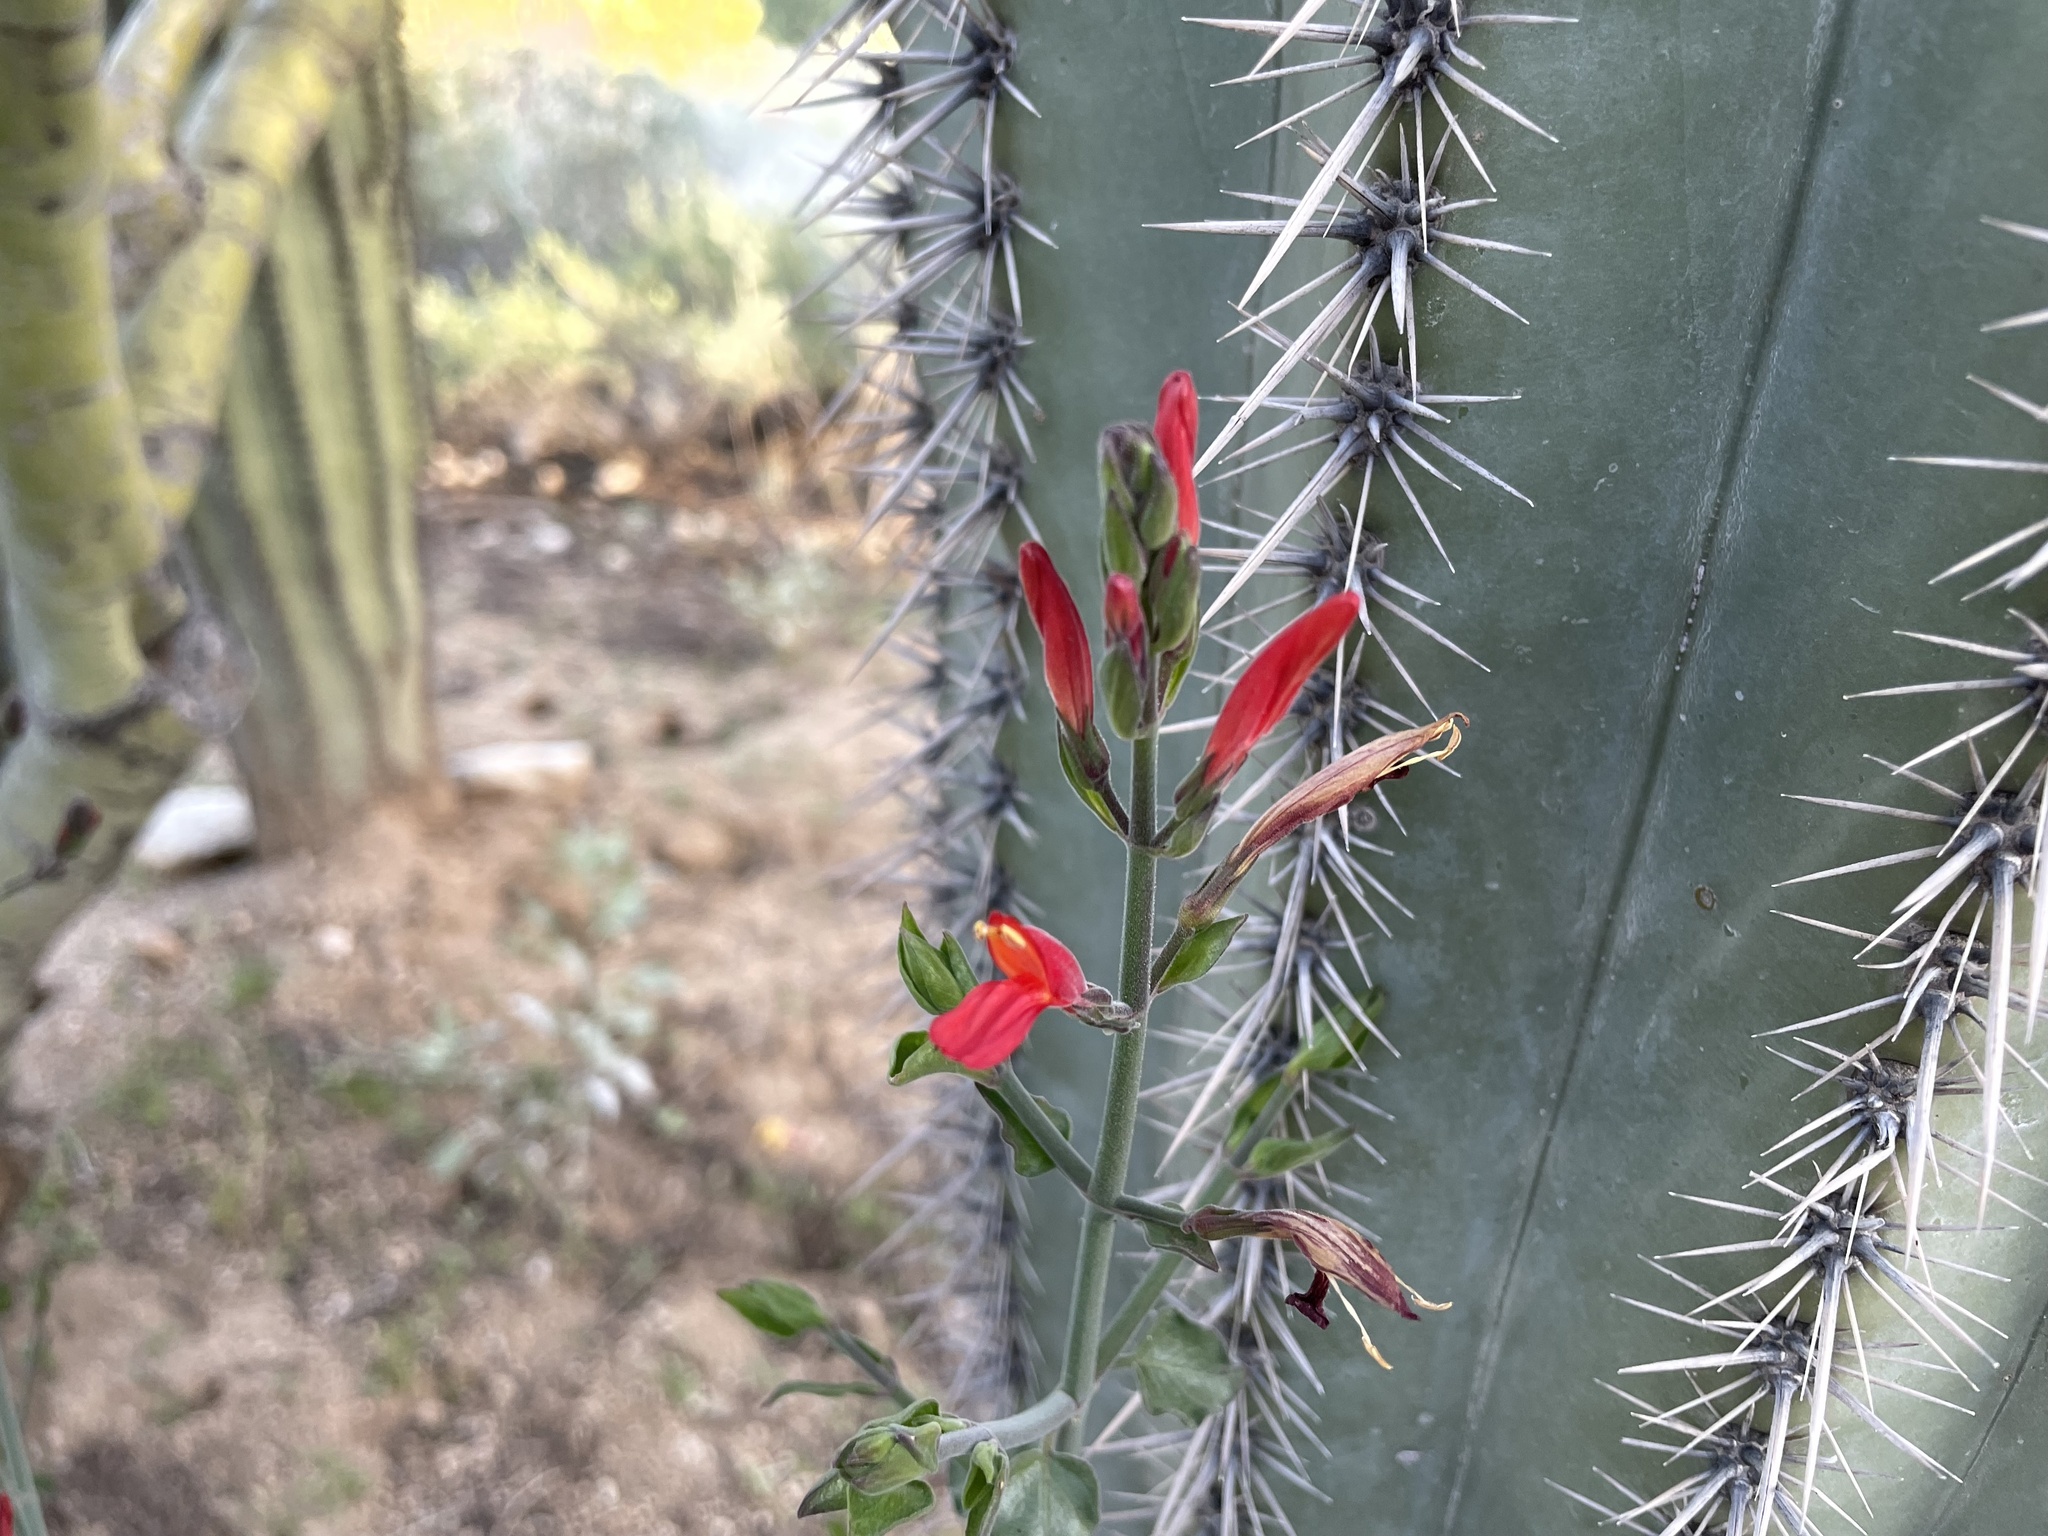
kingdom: Plantae
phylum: Tracheophyta
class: Magnoliopsida
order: Lamiales
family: Acanthaceae
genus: Justicia
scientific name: Justicia californica
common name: Chuparosa-honeysuckle
